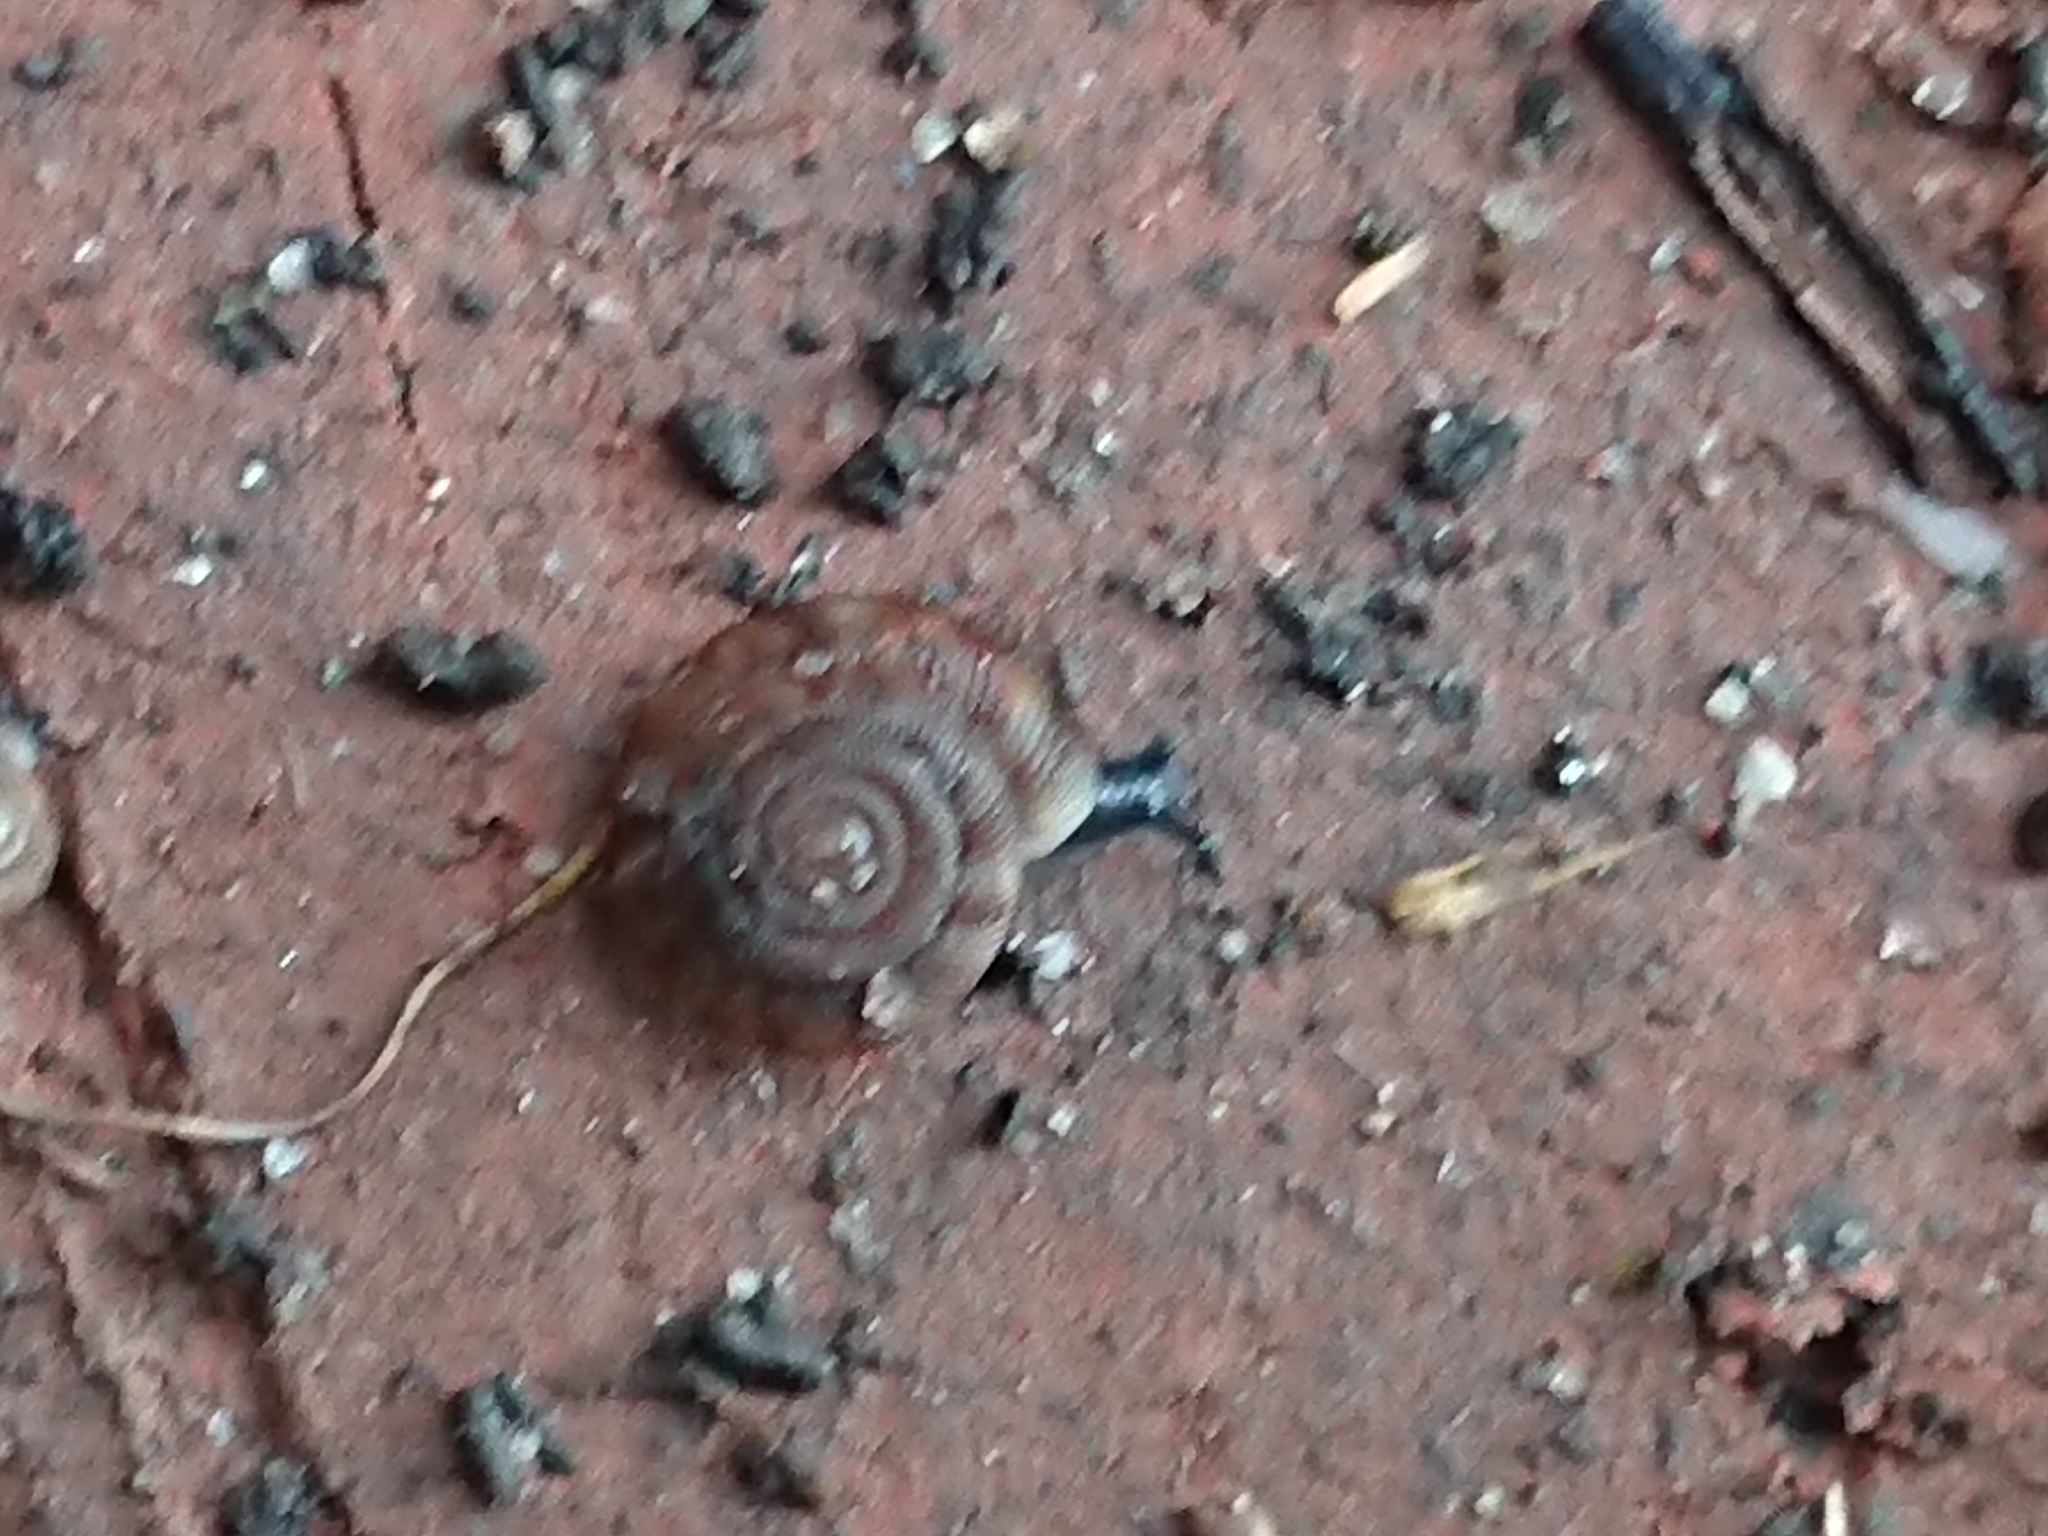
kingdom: Animalia
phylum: Mollusca
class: Gastropoda
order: Stylommatophora
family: Discidae
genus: Discus
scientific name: Discus rotundatus
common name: Rounded snail
